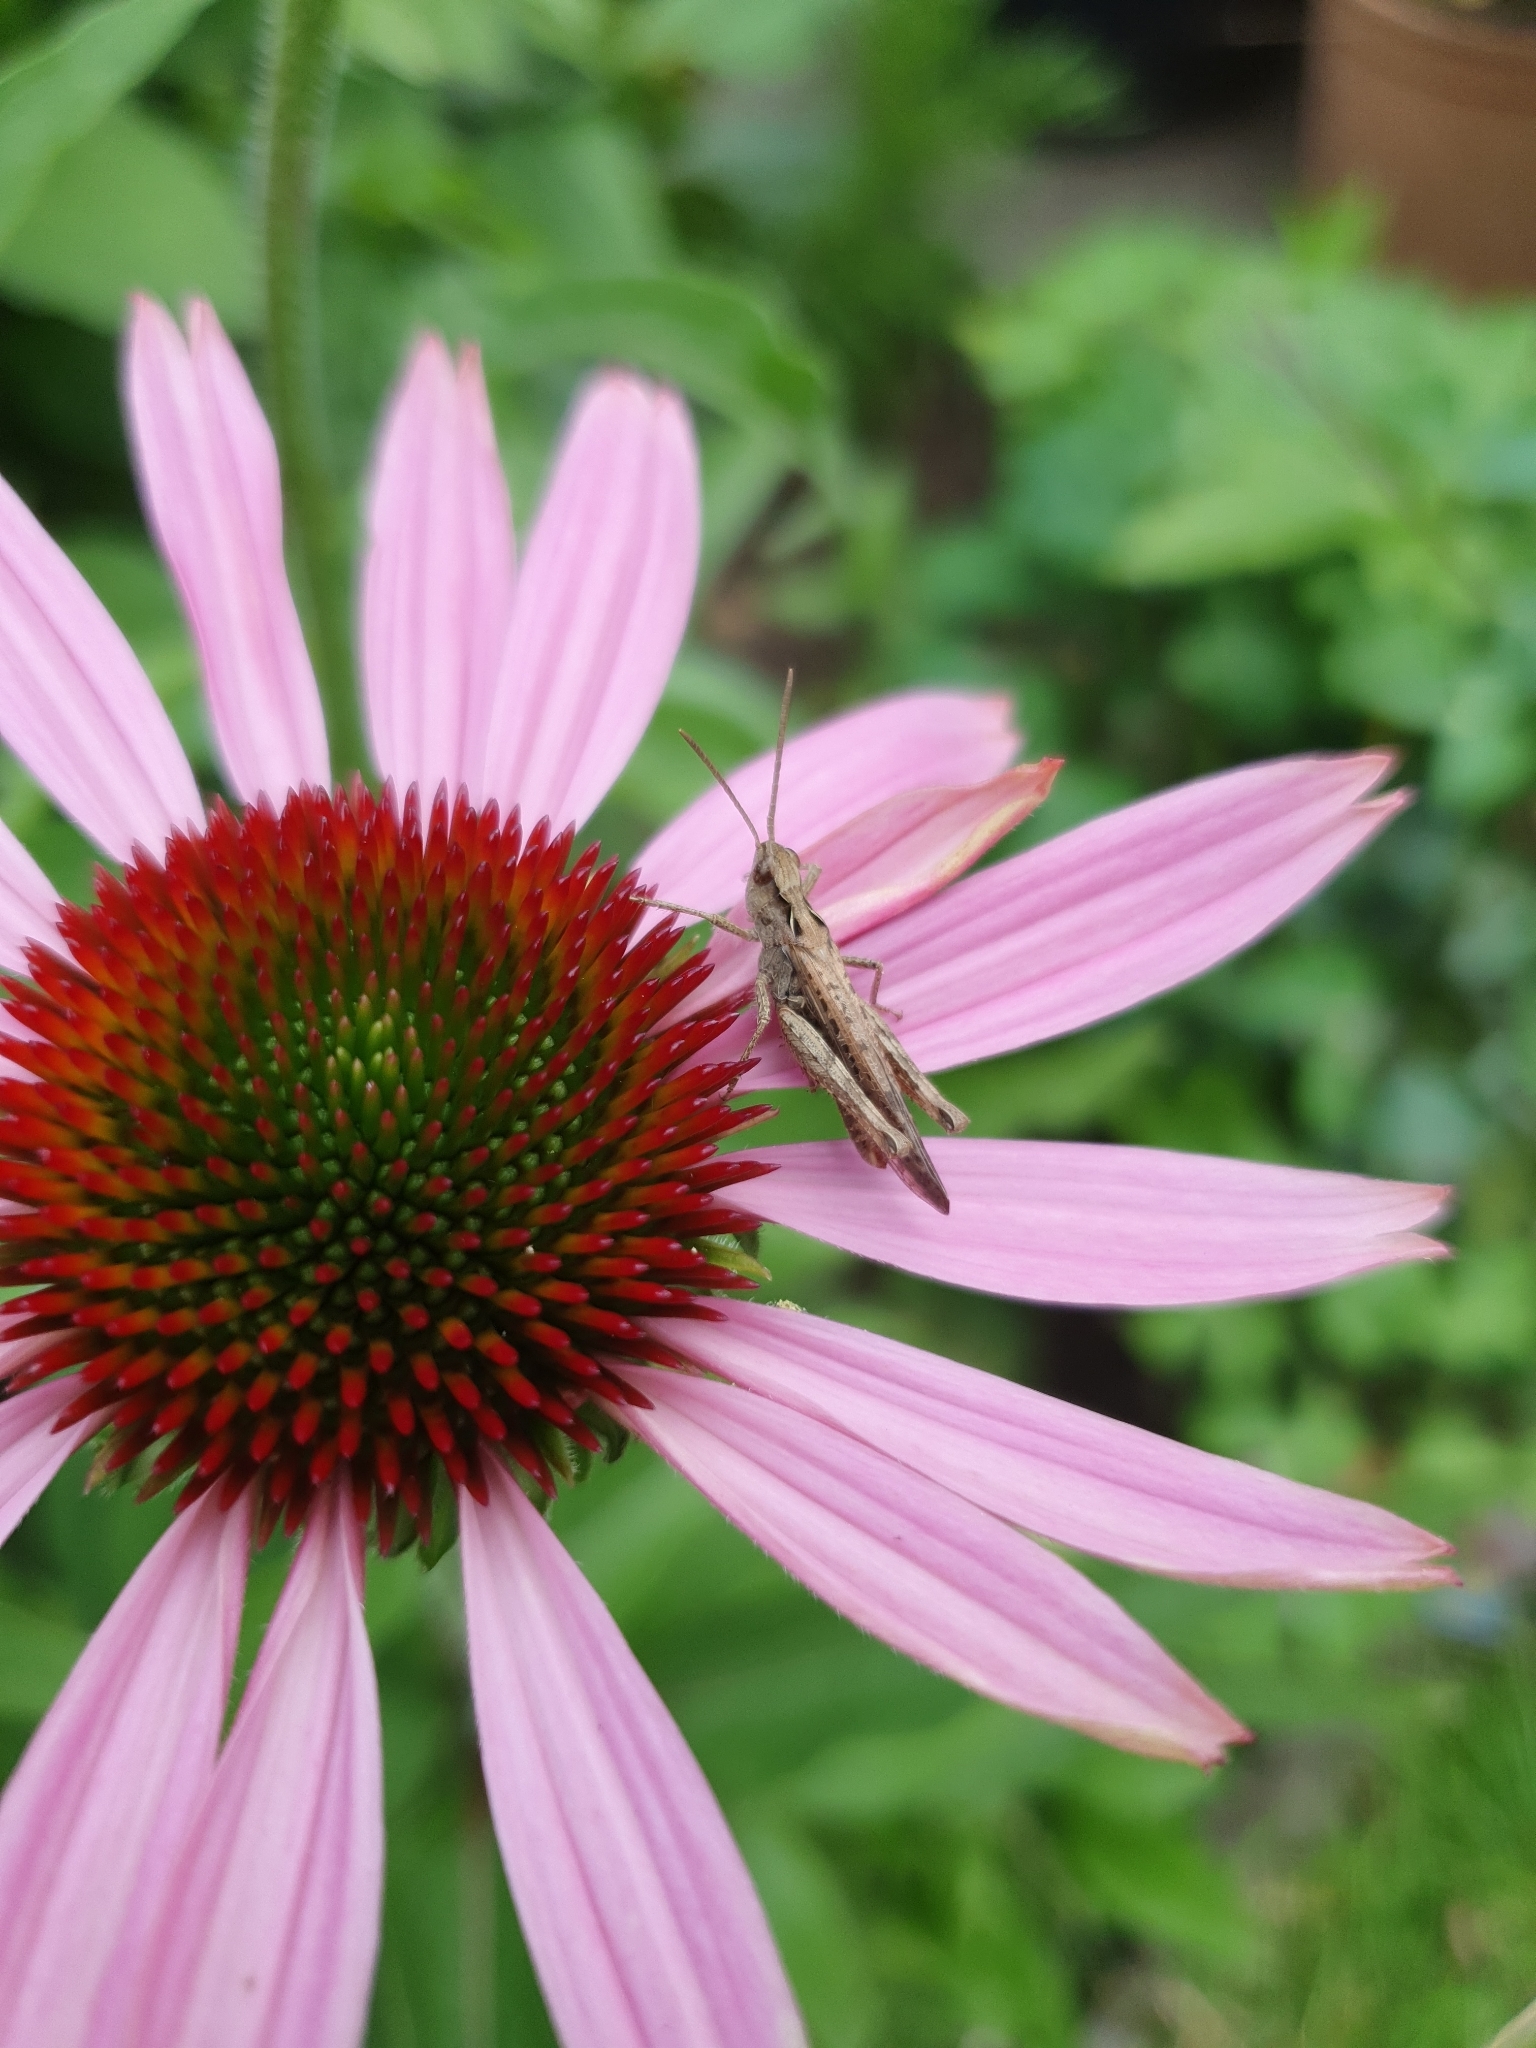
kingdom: Animalia
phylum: Arthropoda
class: Insecta
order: Orthoptera
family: Acrididae
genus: Chorthippus
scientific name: Chorthippus brunneus
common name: Field grasshopper
